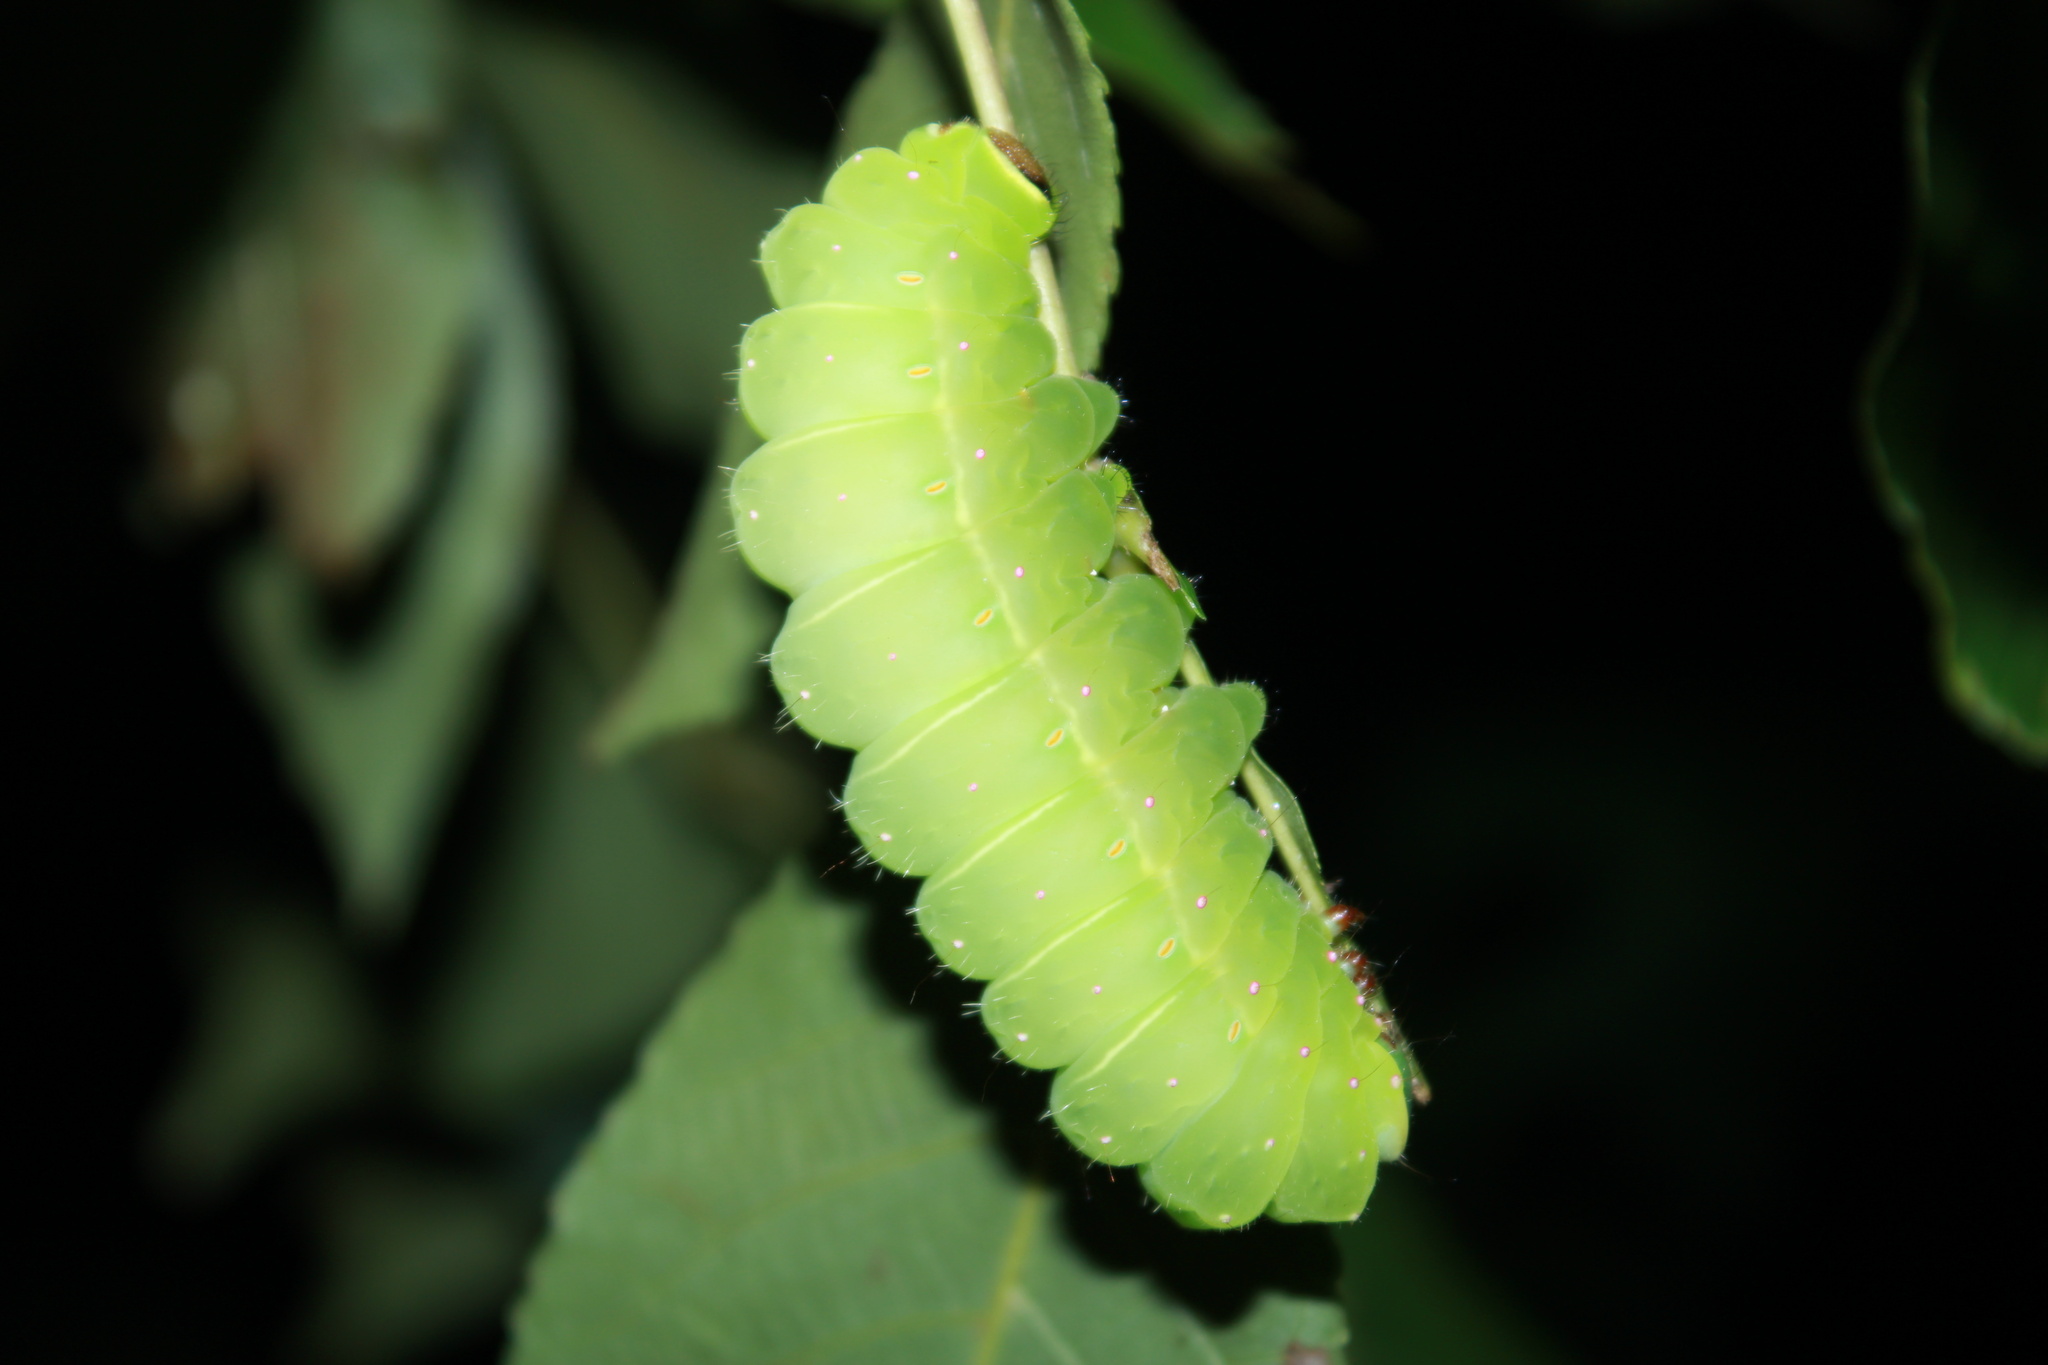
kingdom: Animalia
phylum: Arthropoda
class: Insecta
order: Lepidoptera
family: Saturniidae
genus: Actias
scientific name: Actias luna
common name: Luna moth
